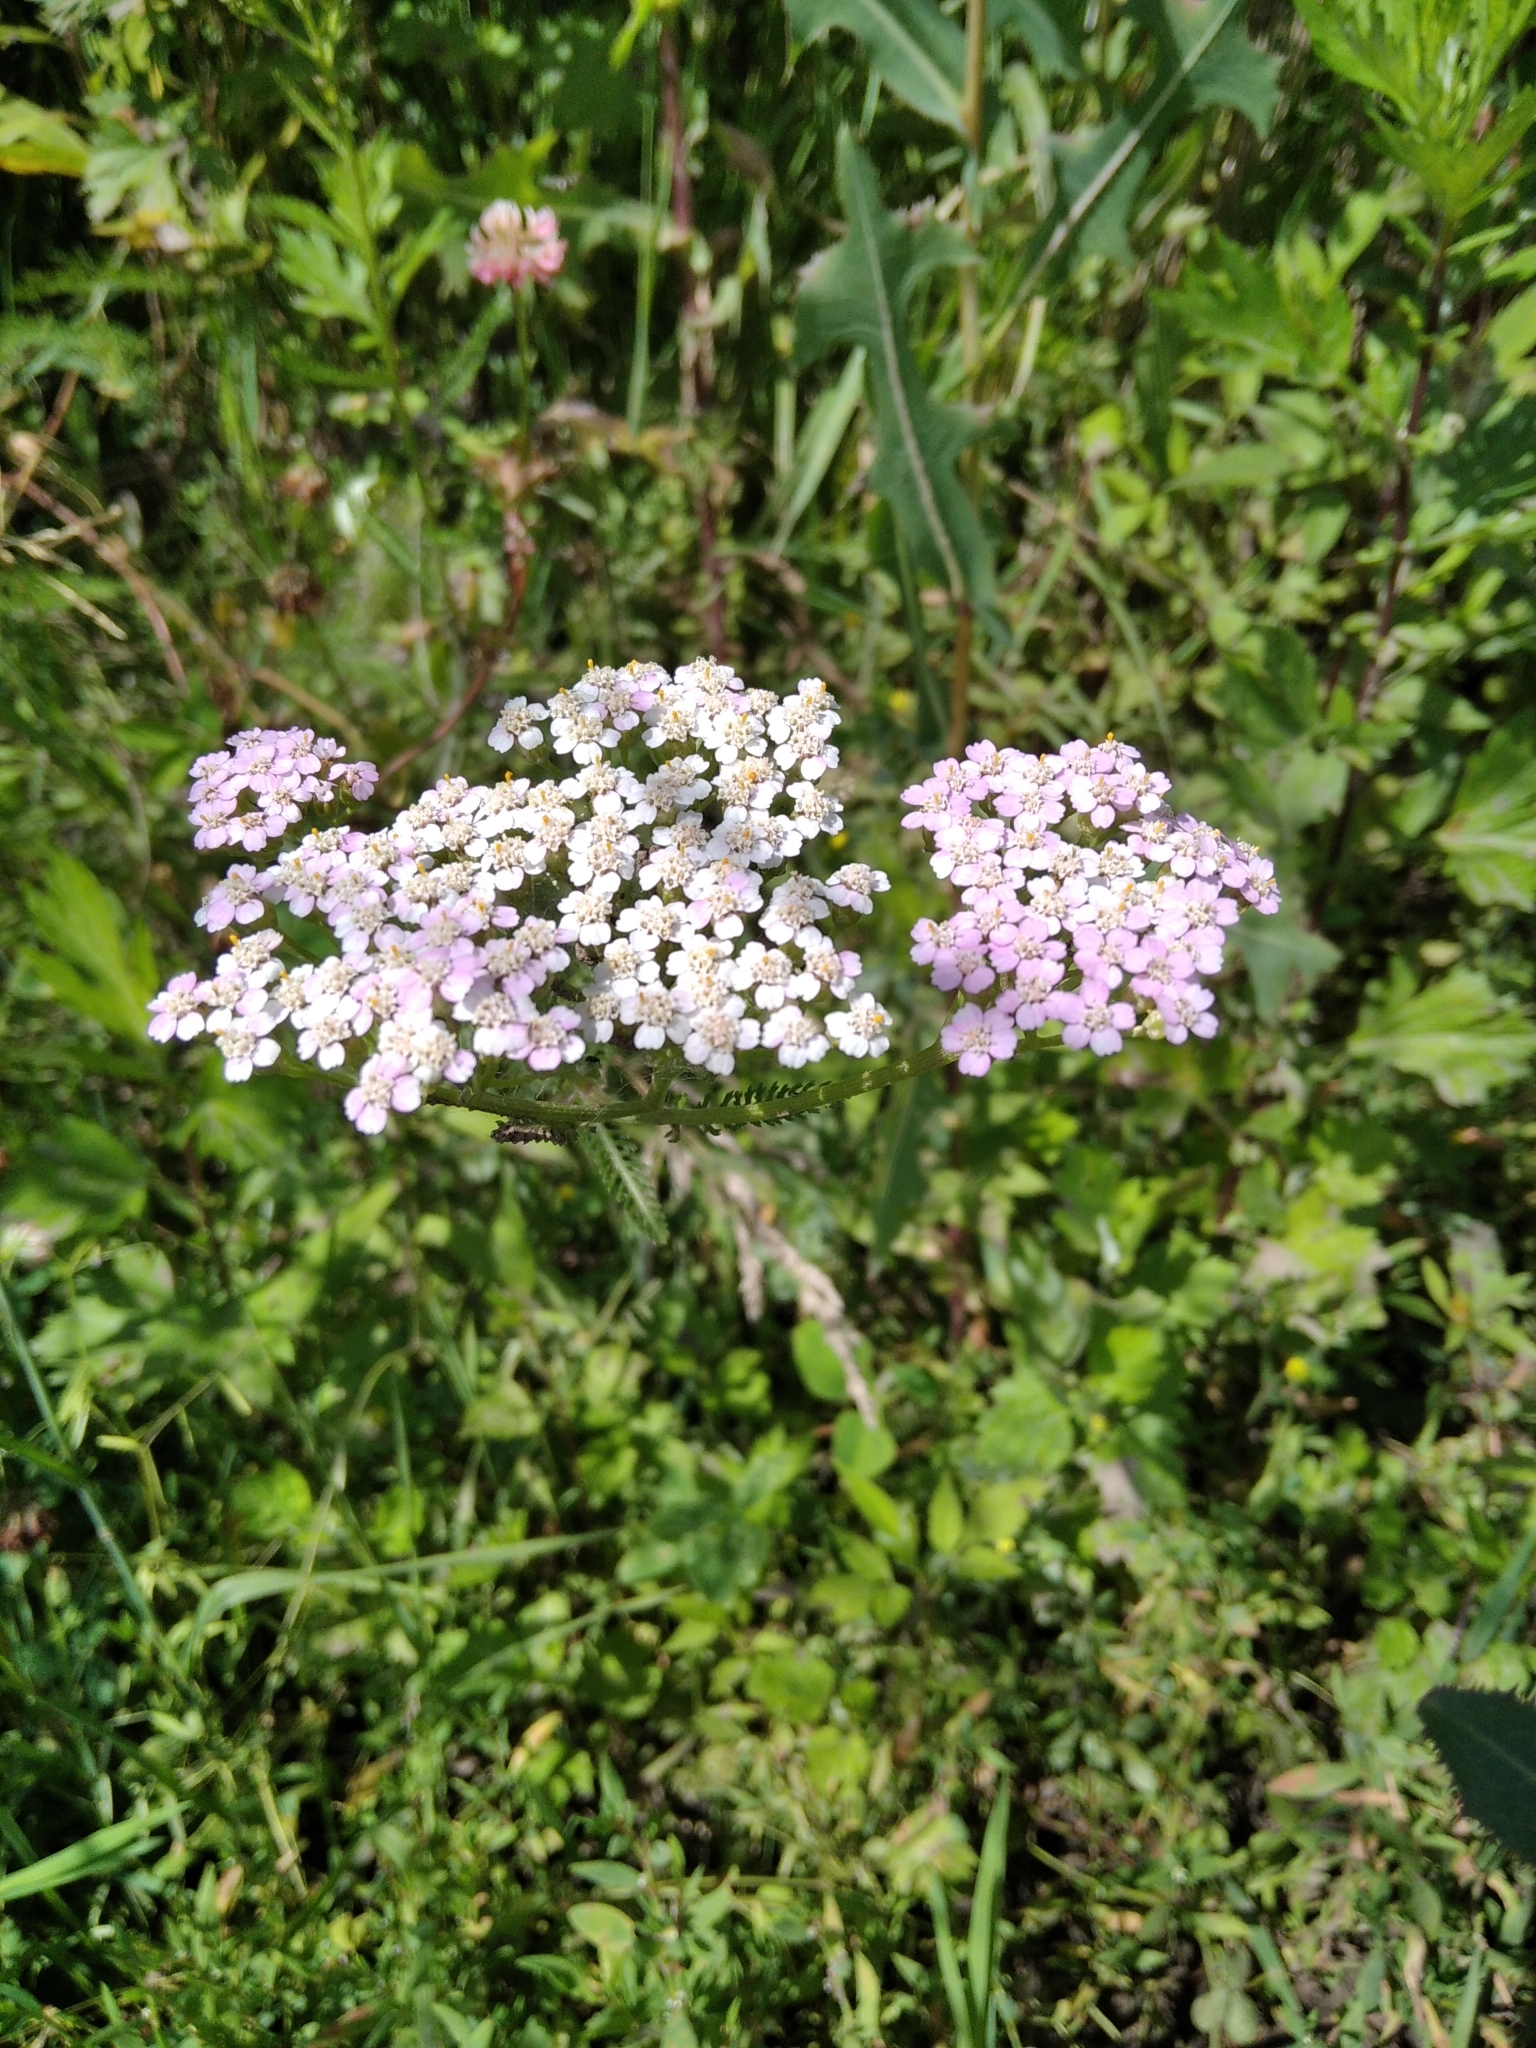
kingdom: Plantae
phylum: Tracheophyta
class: Magnoliopsida
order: Asterales
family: Asteraceae
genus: Achillea
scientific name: Achillea millefolium
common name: Yarrow
